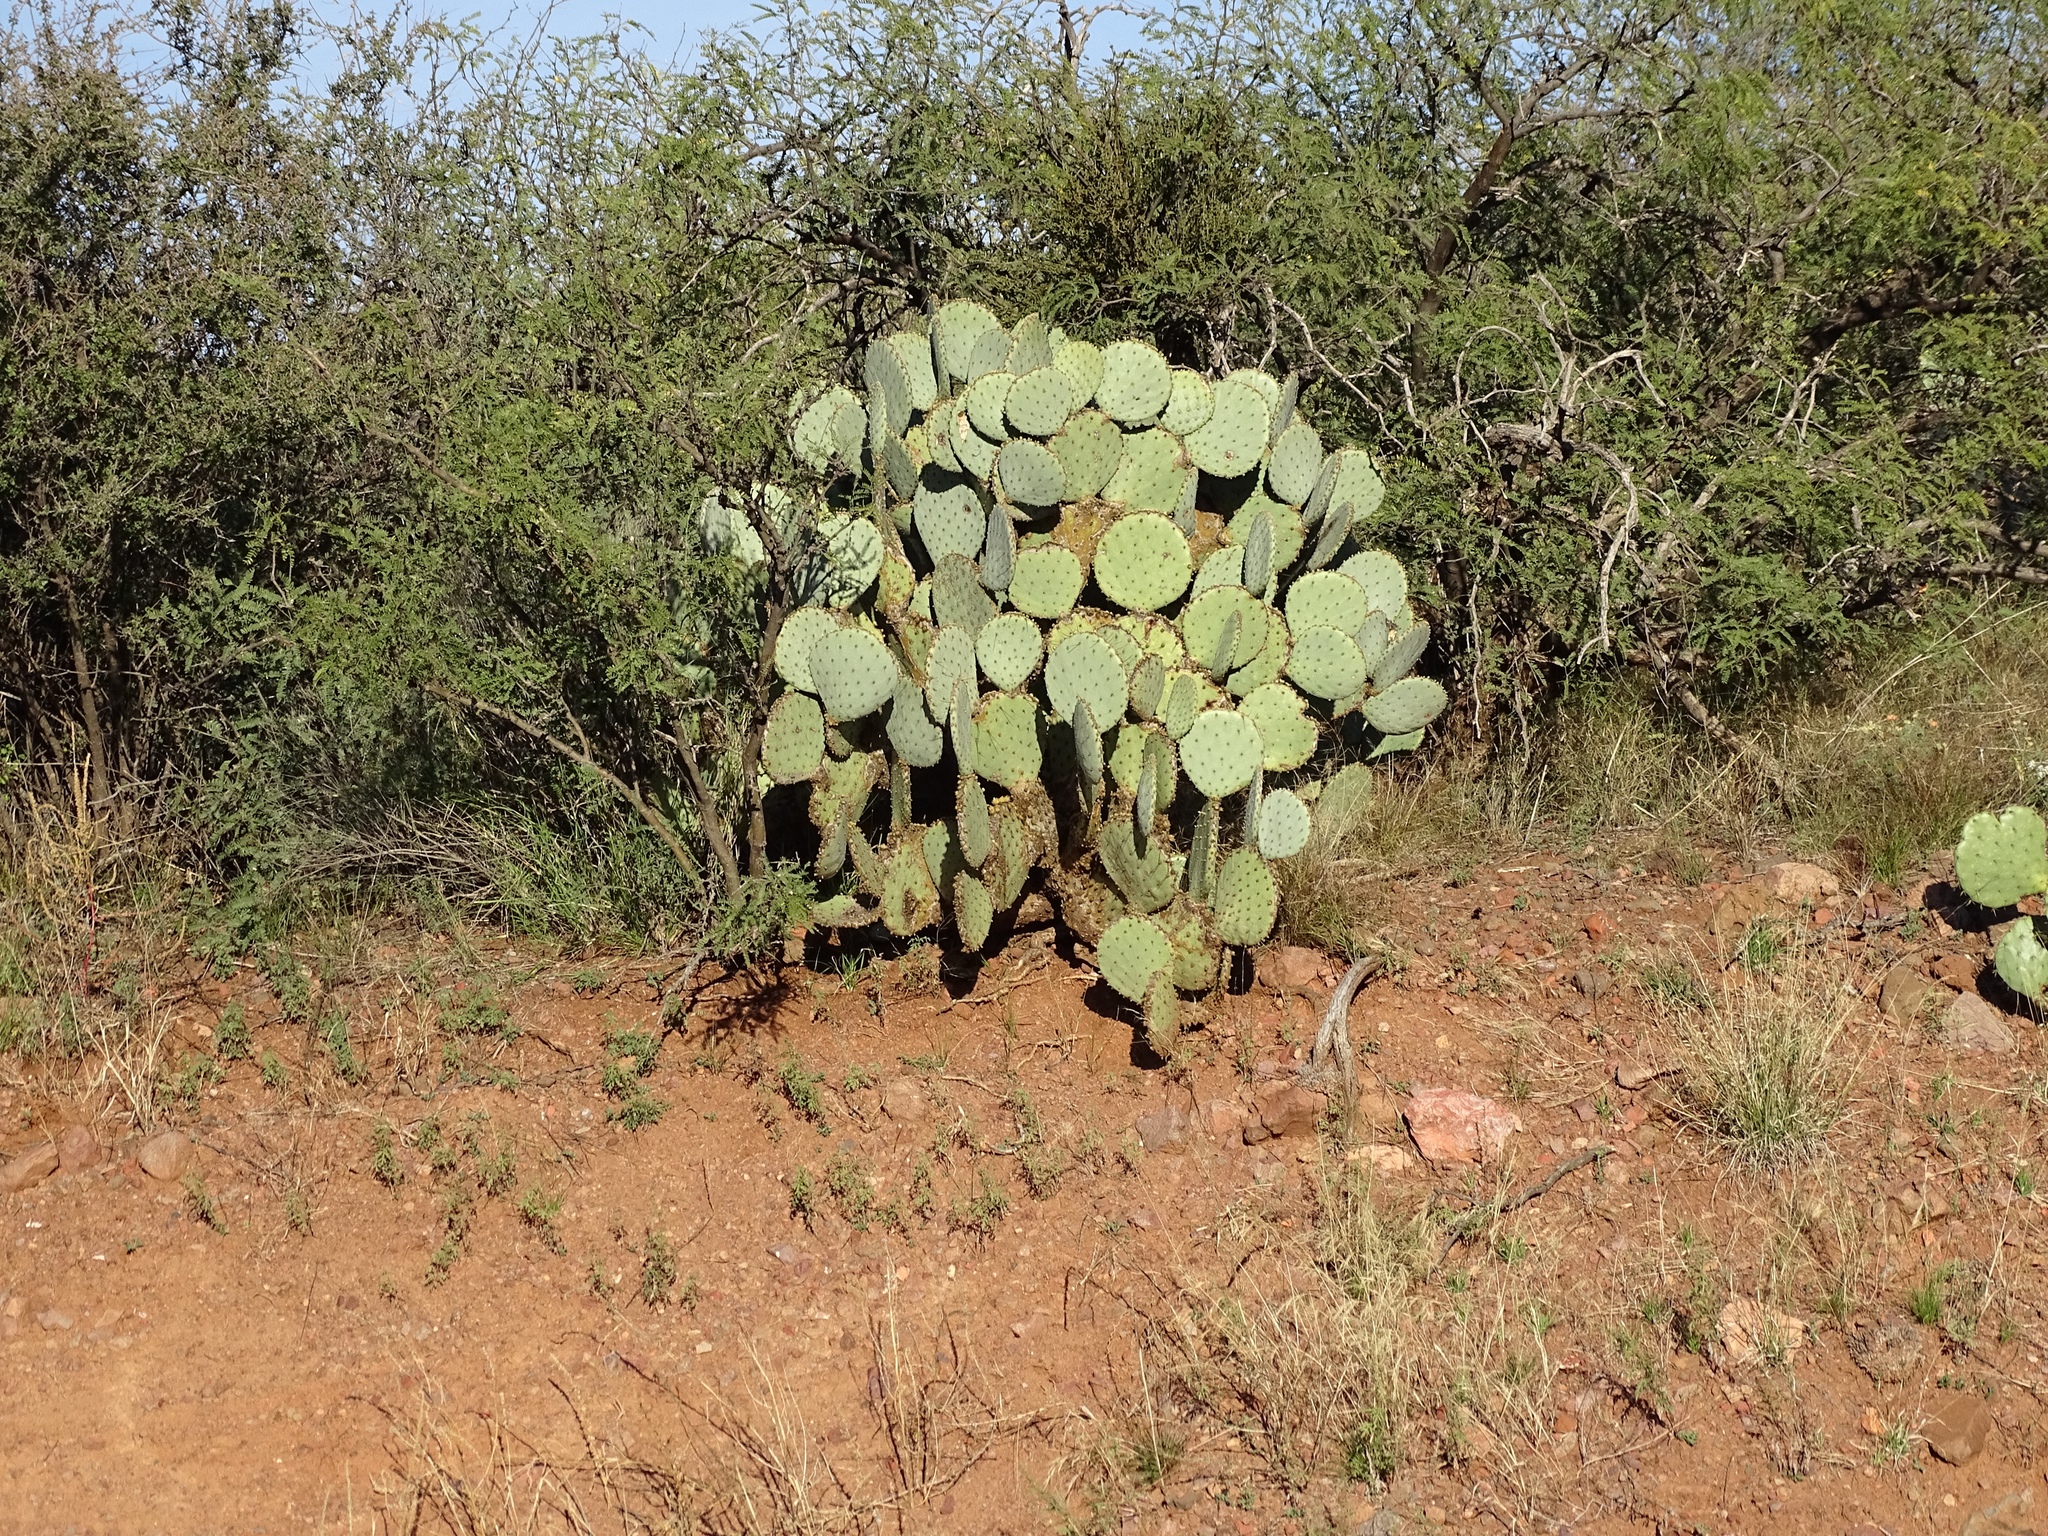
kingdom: Plantae
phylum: Tracheophyta
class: Magnoliopsida
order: Caryophyllales
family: Cactaceae
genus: Opuntia
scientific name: Opuntia chlorotica
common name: Dollar-joint prickly-pear
